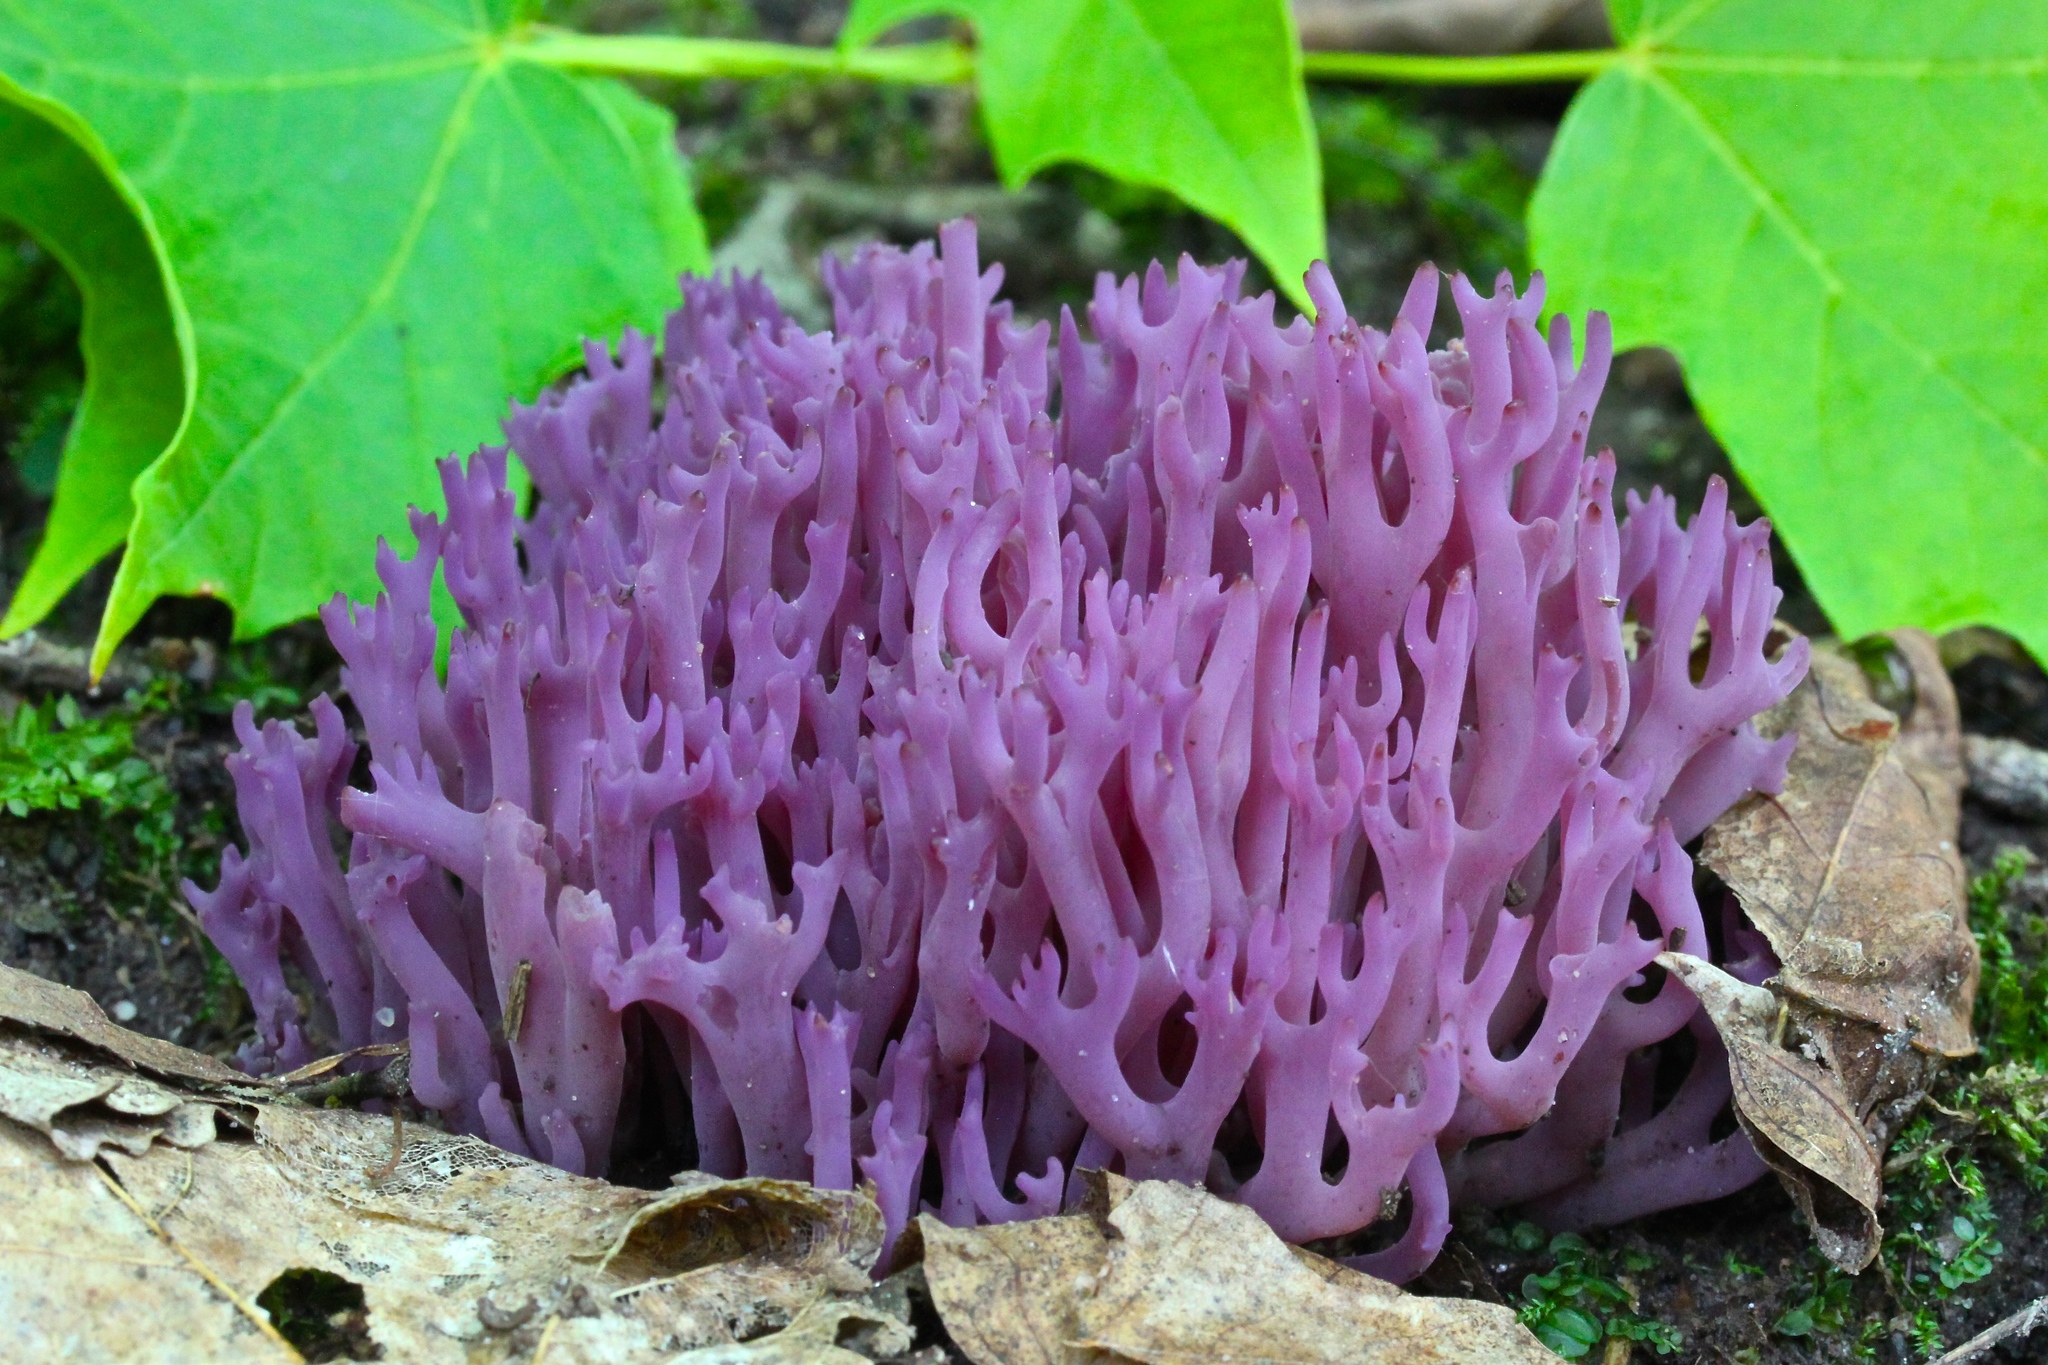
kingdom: Fungi
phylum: Basidiomycota
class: Agaricomycetes
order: Agaricales
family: Clavariaceae
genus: Clavaria
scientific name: Clavaria zollingeri
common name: Violet coral
